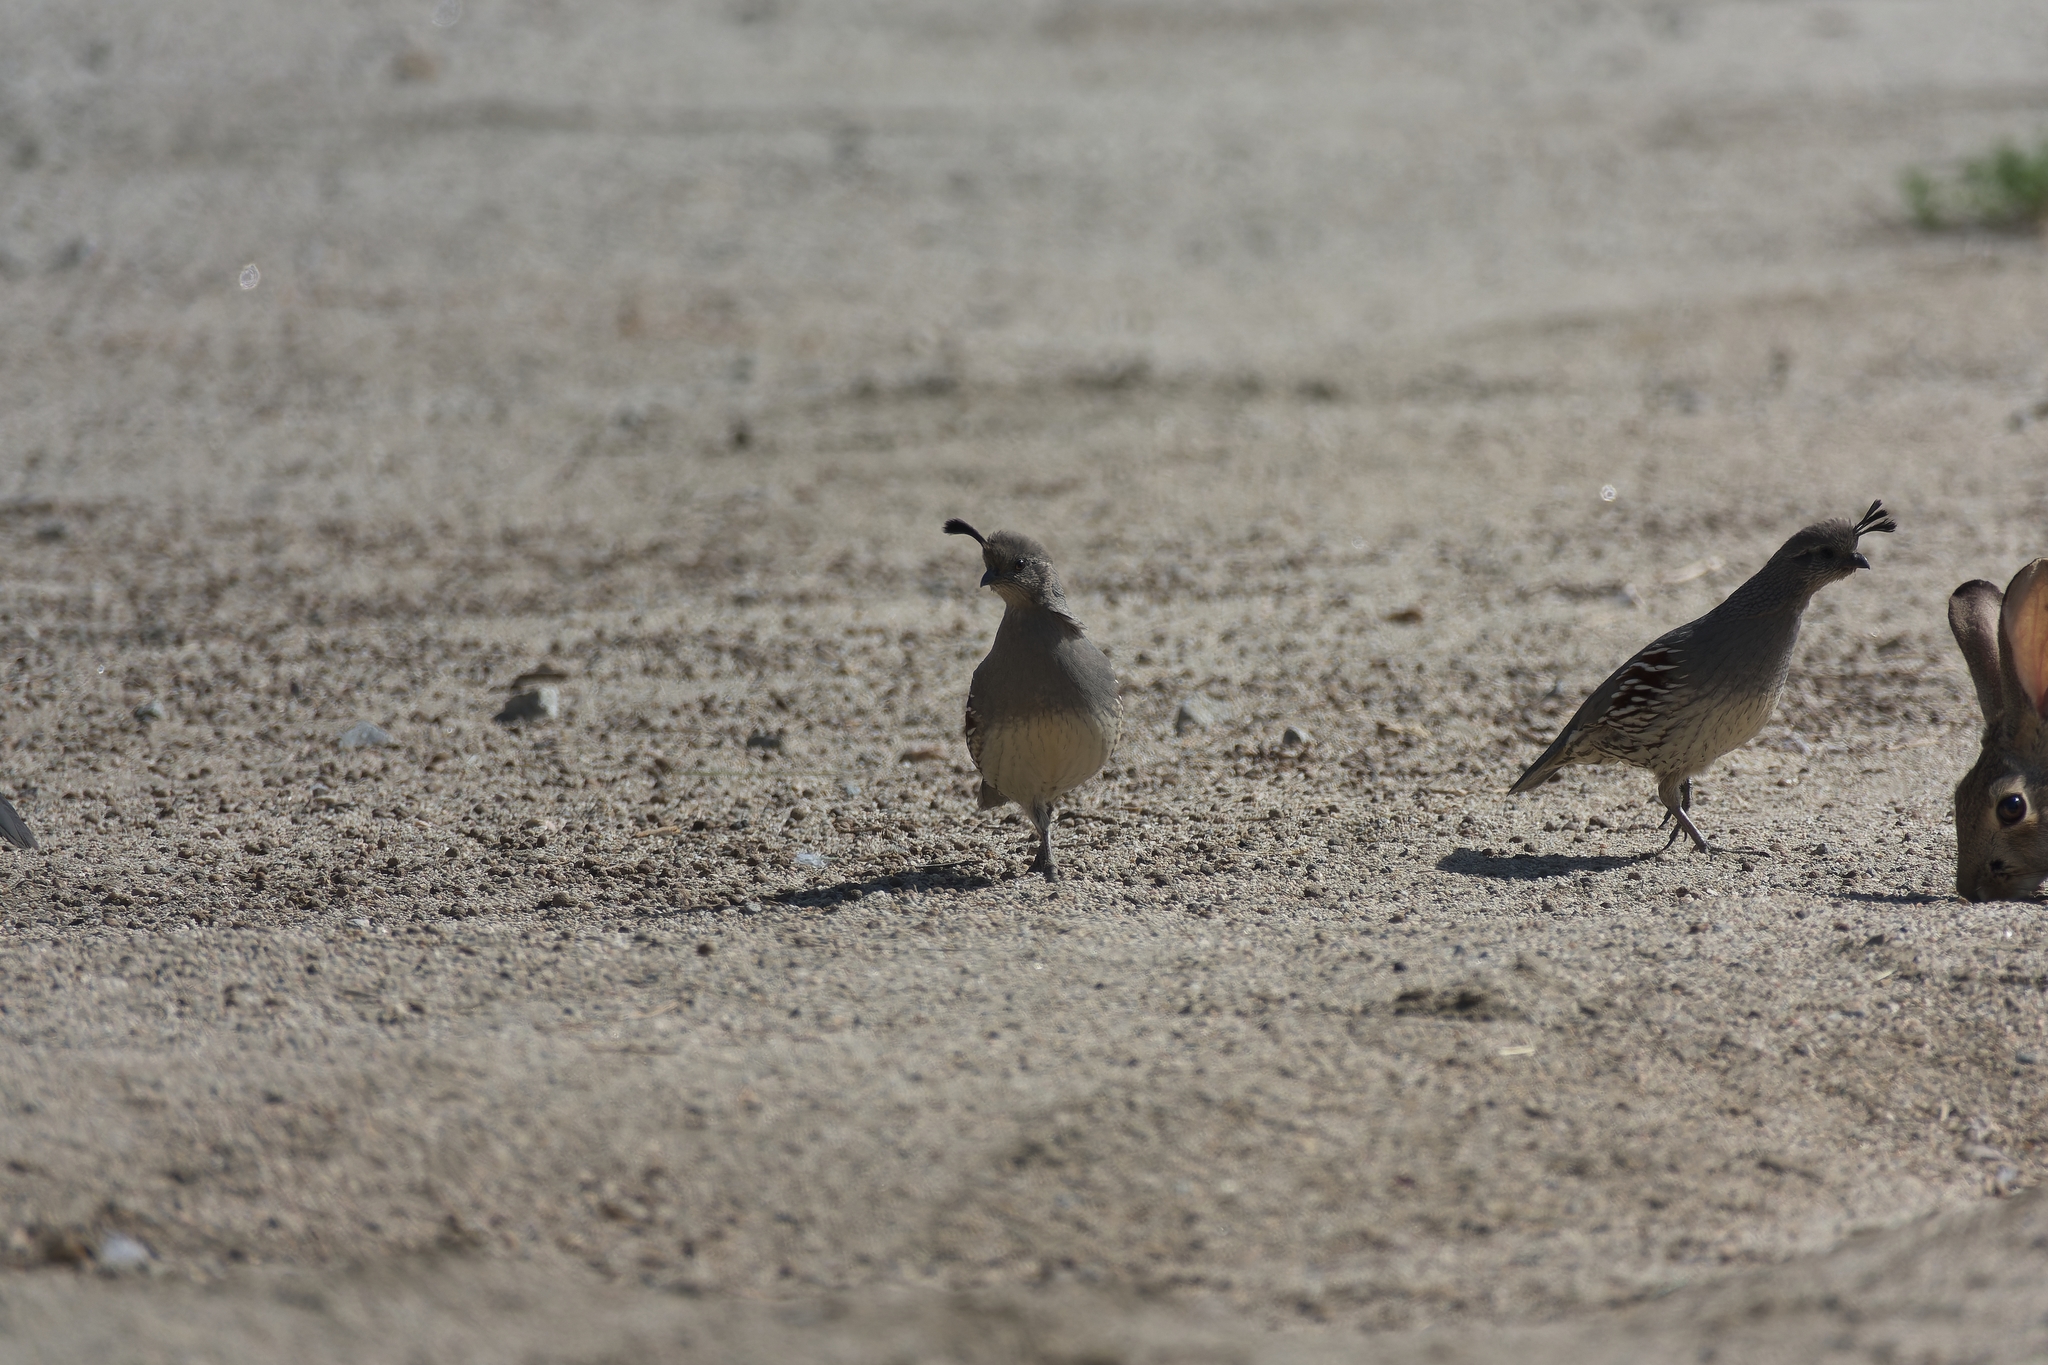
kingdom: Animalia
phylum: Chordata
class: Aves
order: Galliformes
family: Odontophoridae
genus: Callipepla
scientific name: Callipepla gambelii
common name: Gambel's quail
